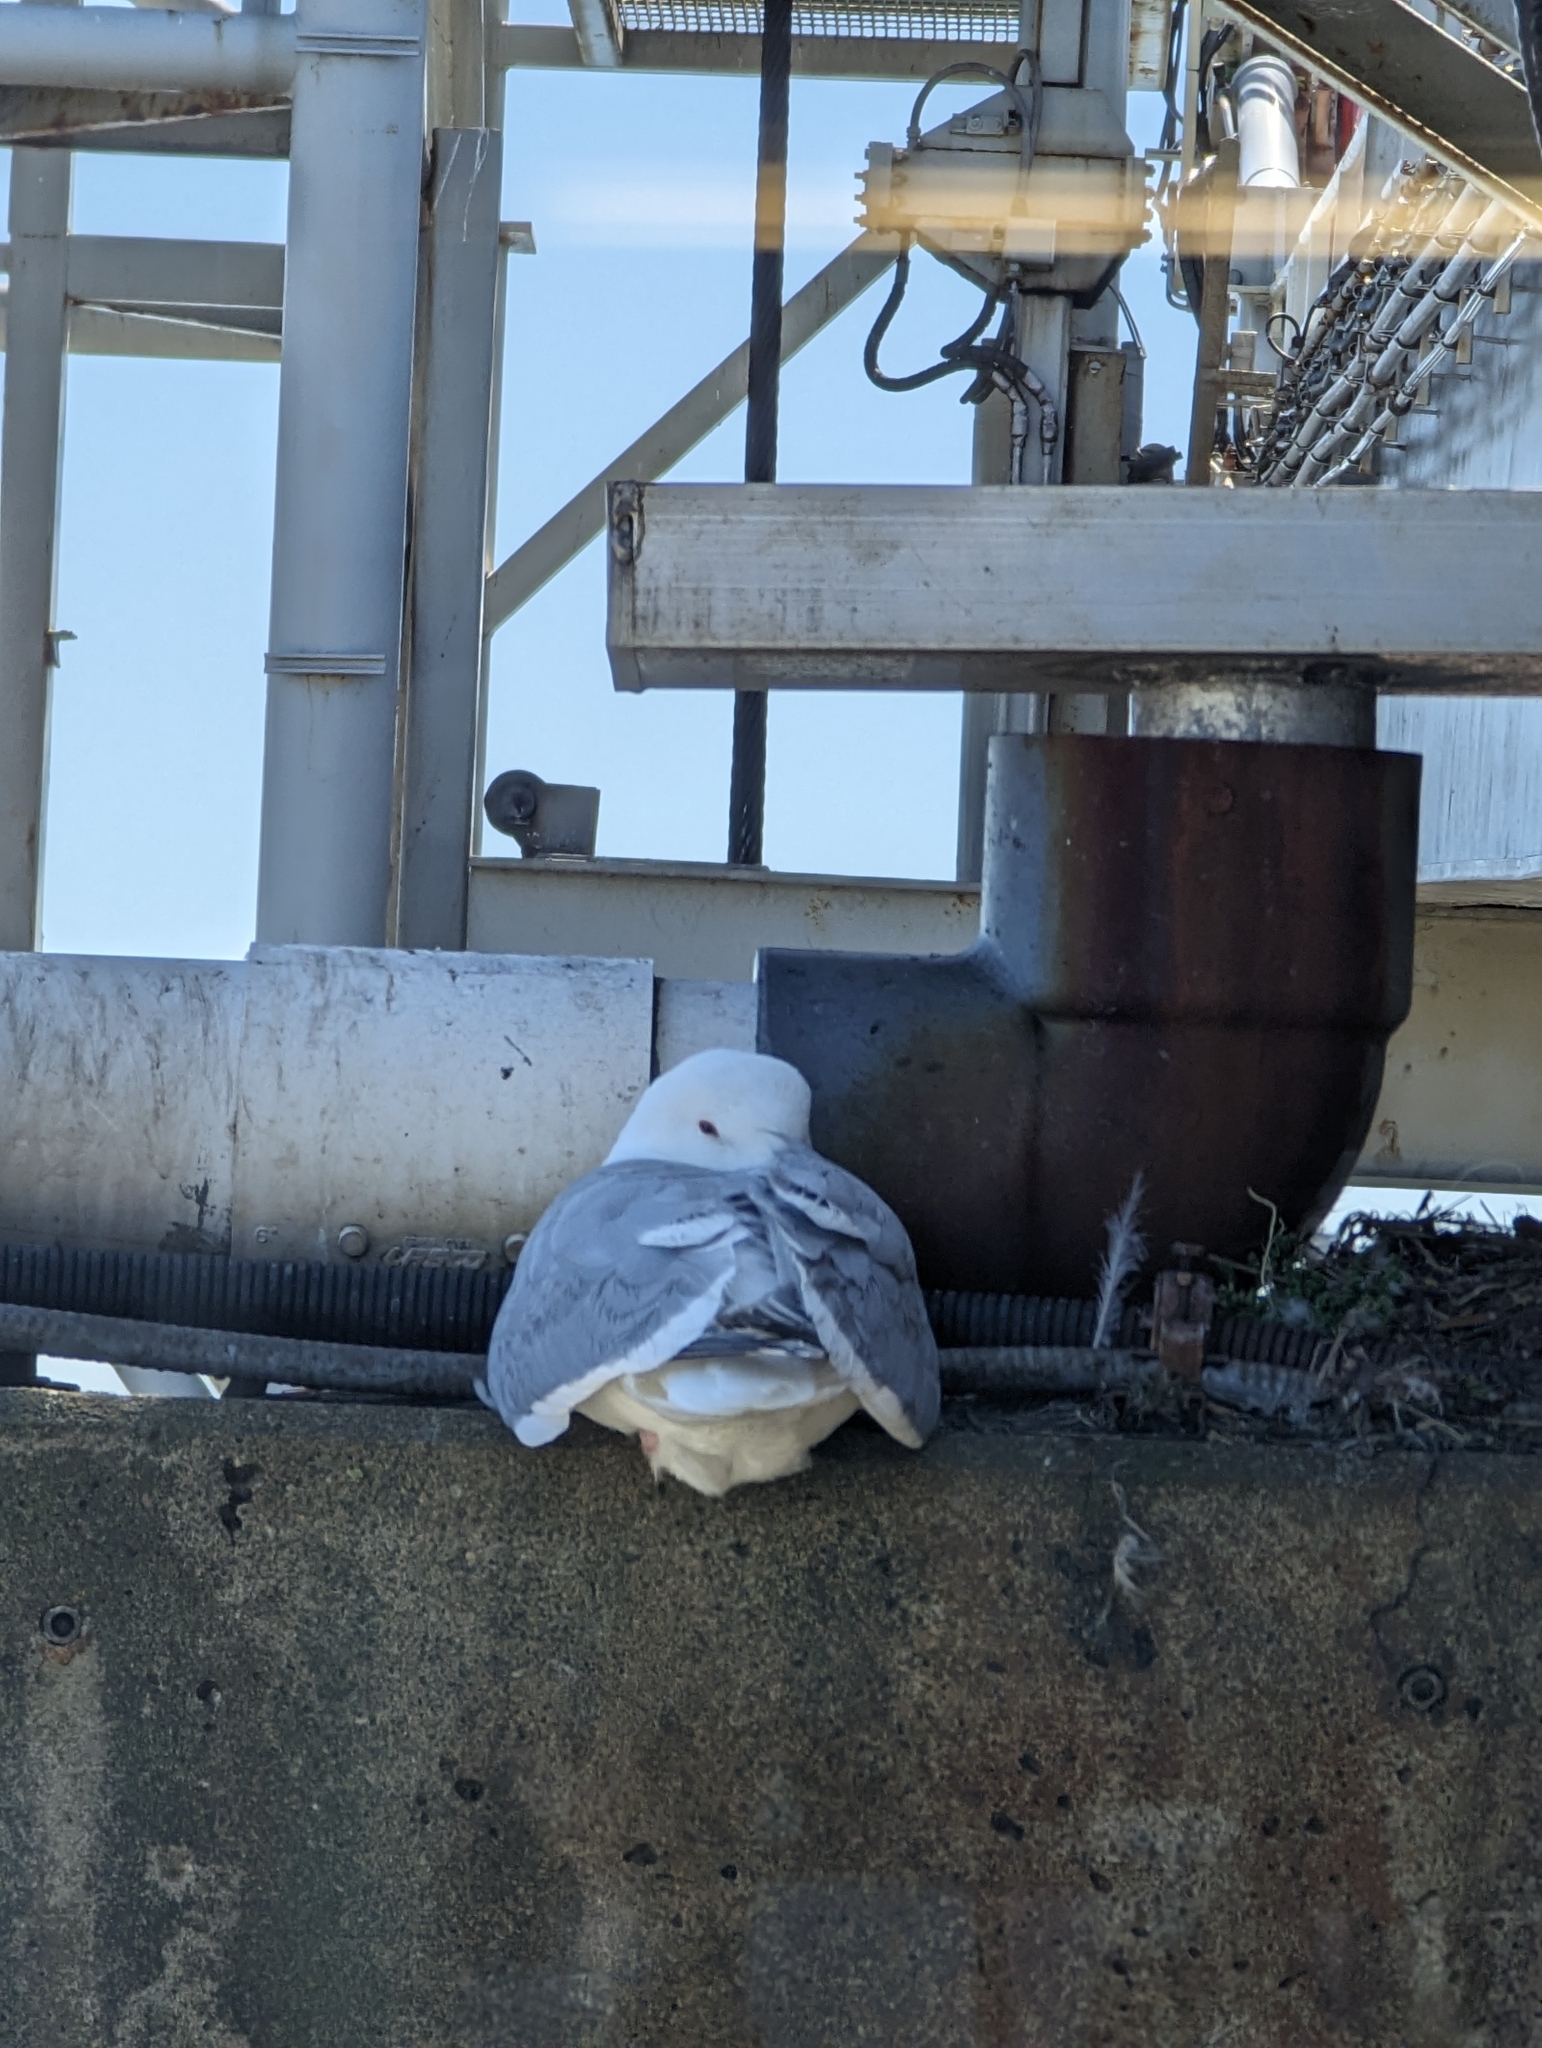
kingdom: Animalia
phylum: Chordata
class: Aves
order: Charadriiformes
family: Laridae
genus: Larus
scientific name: Larus
